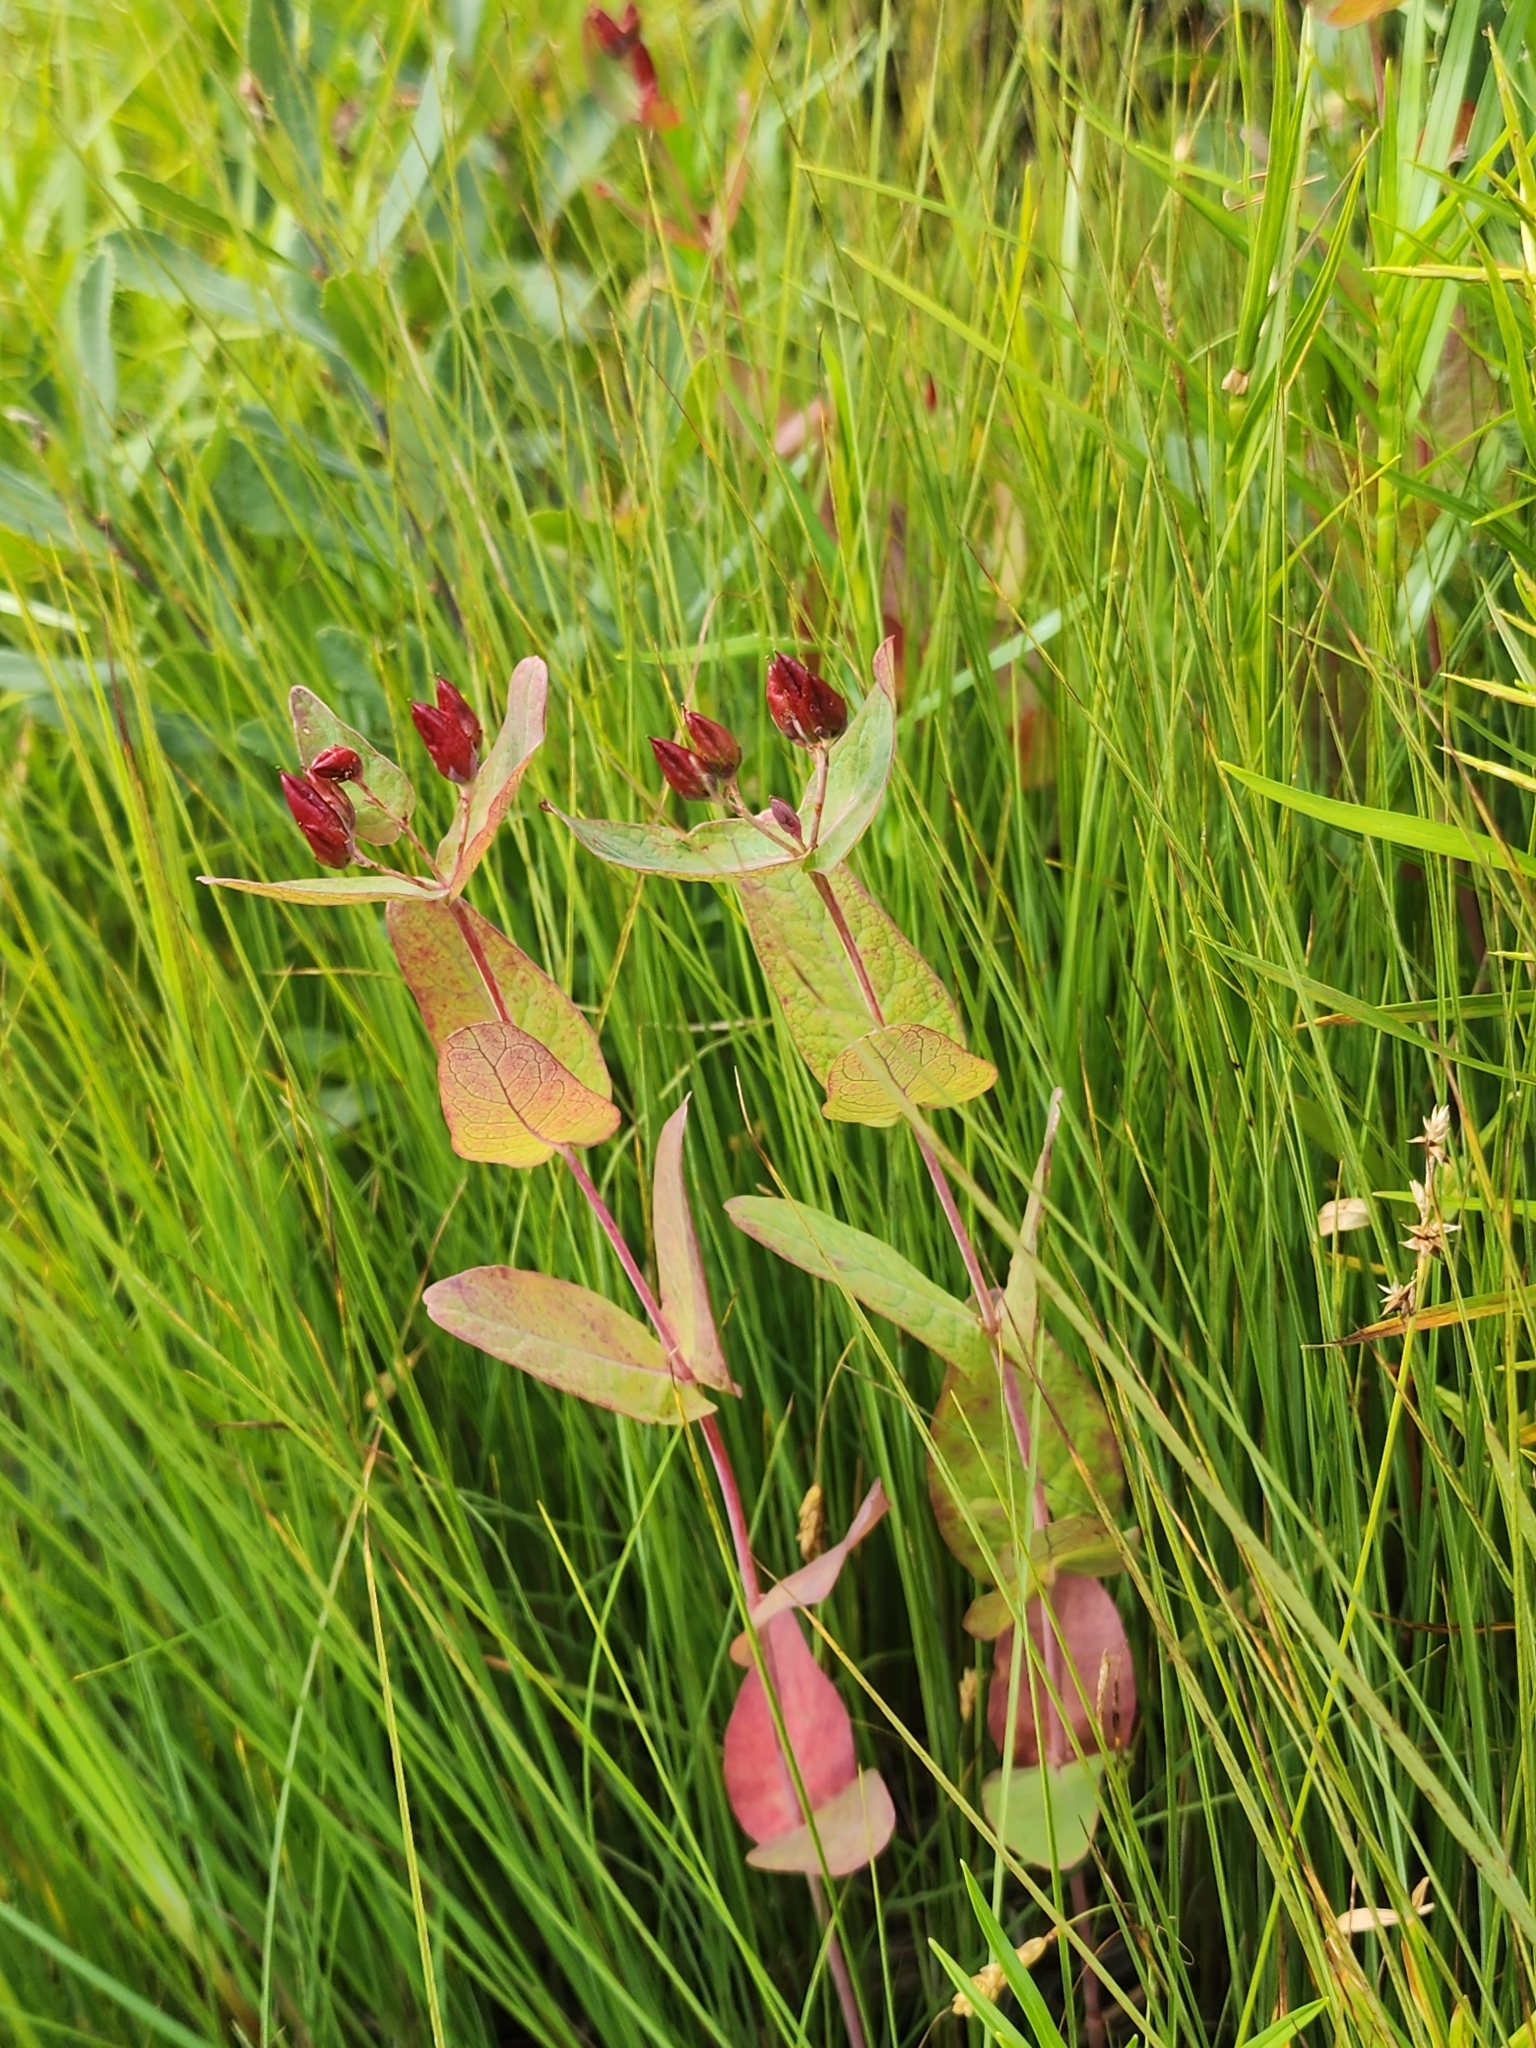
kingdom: Plantae
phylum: Tracheophyta
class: Magnoliopsida
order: Malpighiales
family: Hypericaceae
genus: Triadenum
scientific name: Triadenum fraseri
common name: Fraser's marsh st. johnswort
